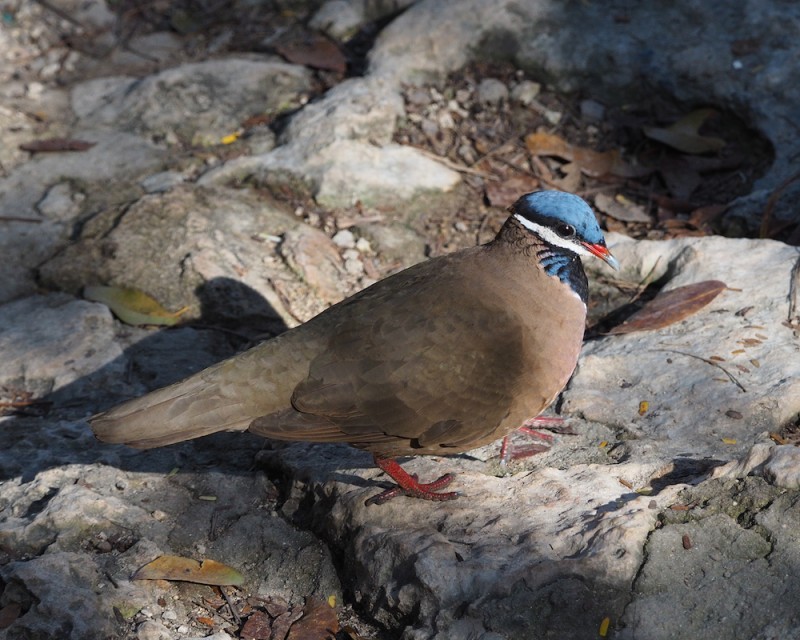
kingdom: Animalia
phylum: Chordata
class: Aves
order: Columbiformes
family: Columbidae
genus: Starnoenas
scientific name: Starnoenas cyanocephala
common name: Blue-headed quail-dove
